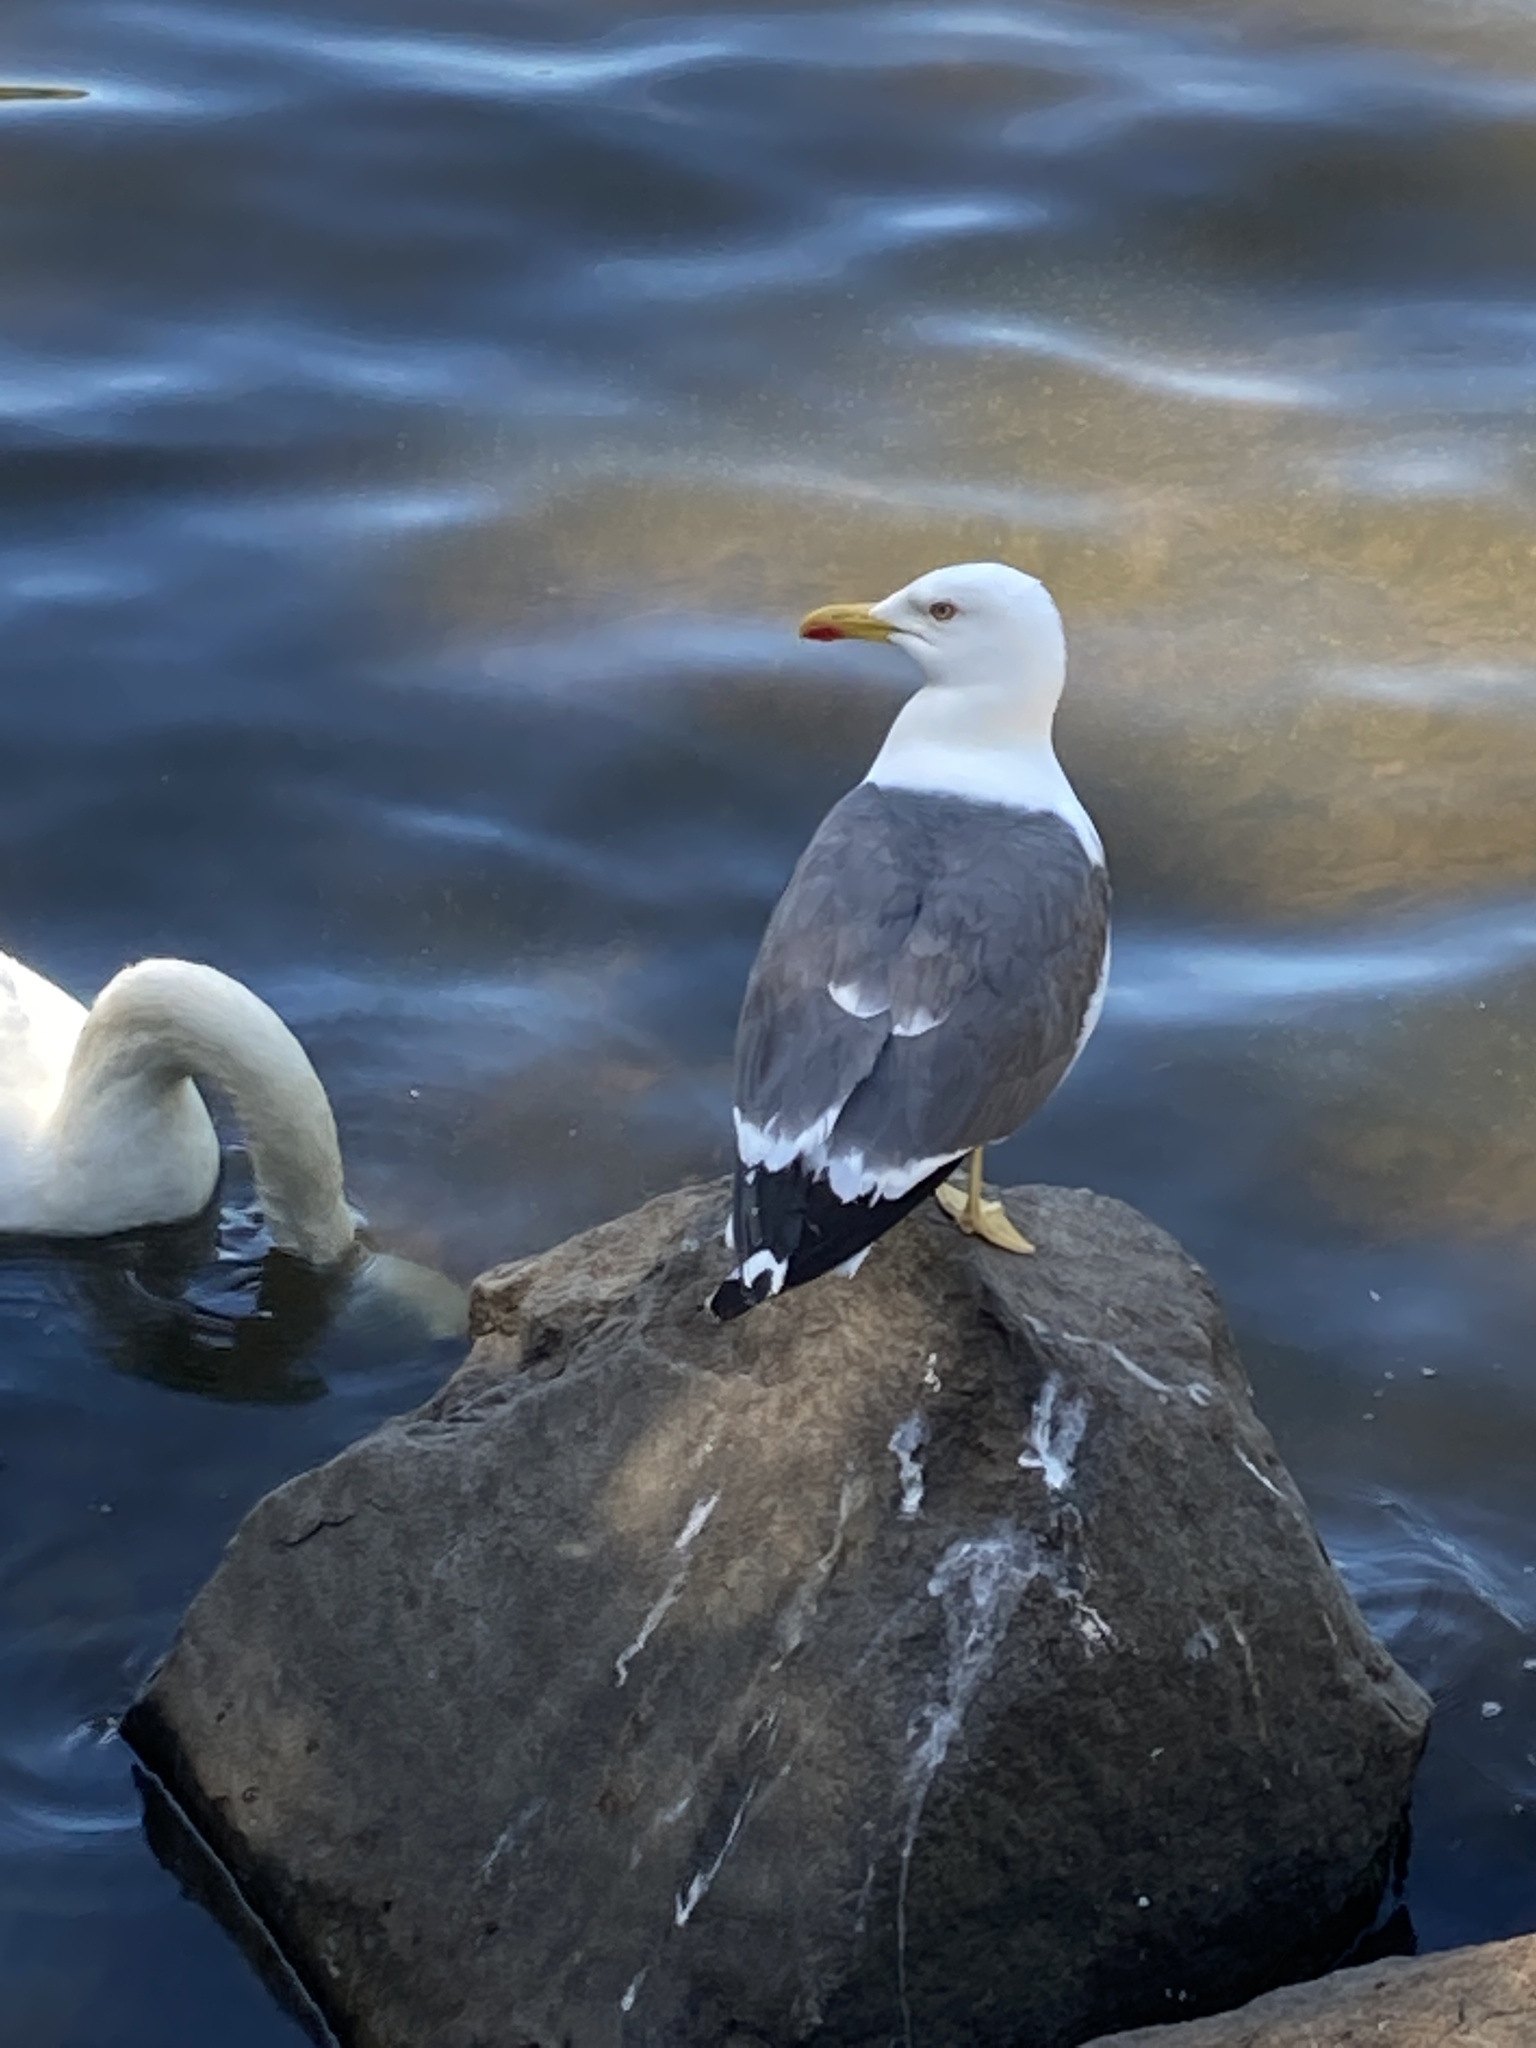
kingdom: Animalia
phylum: Chordata
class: Aves
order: Charadriiformes
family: Laridae
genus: Larus
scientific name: Larus fuscus
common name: Lesser black-backed gull
